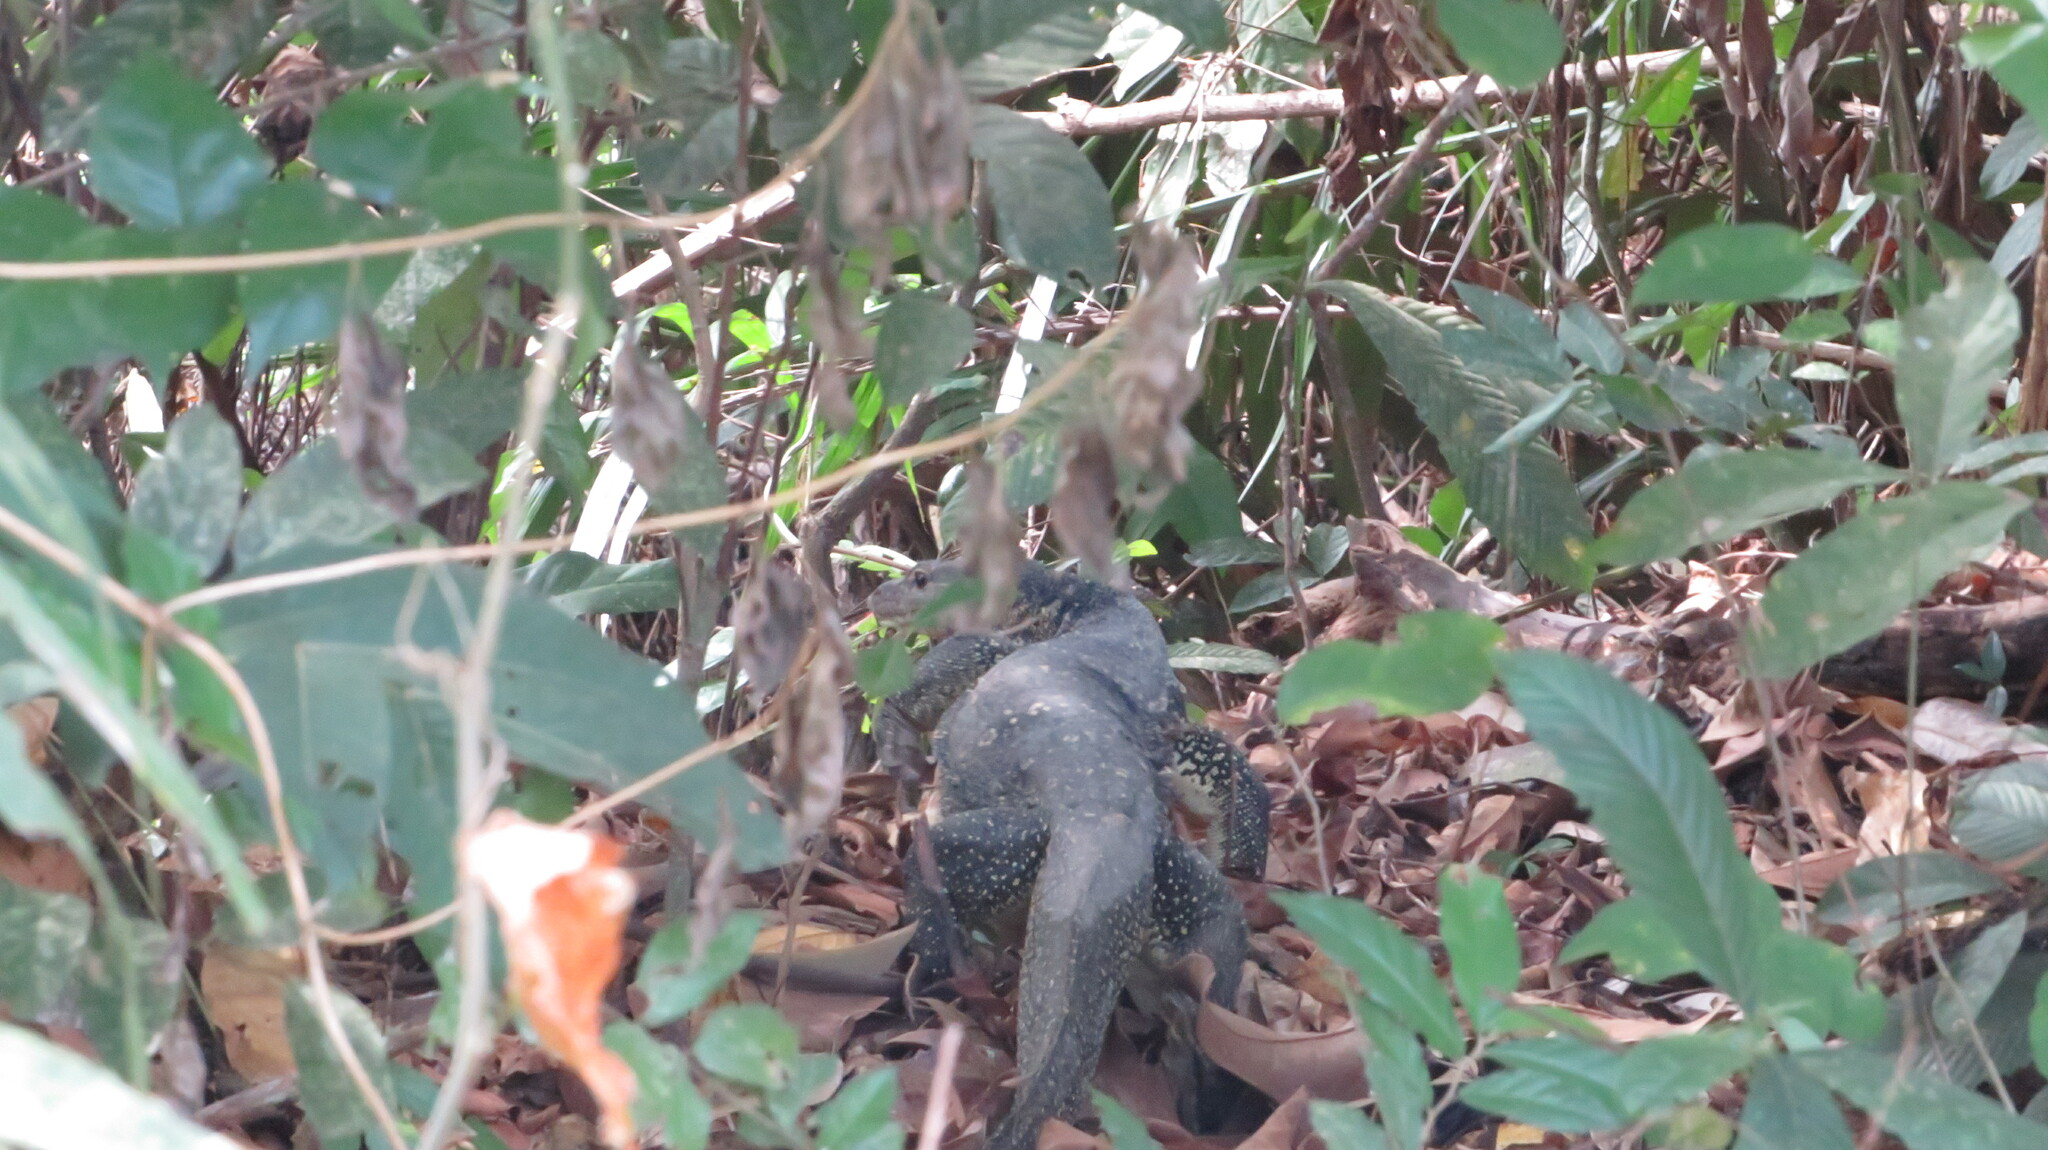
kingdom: Animalia
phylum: Chordata
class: Squamata
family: Varanidae
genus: Varanus
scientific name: Varanus salvator
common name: Common water monitor
